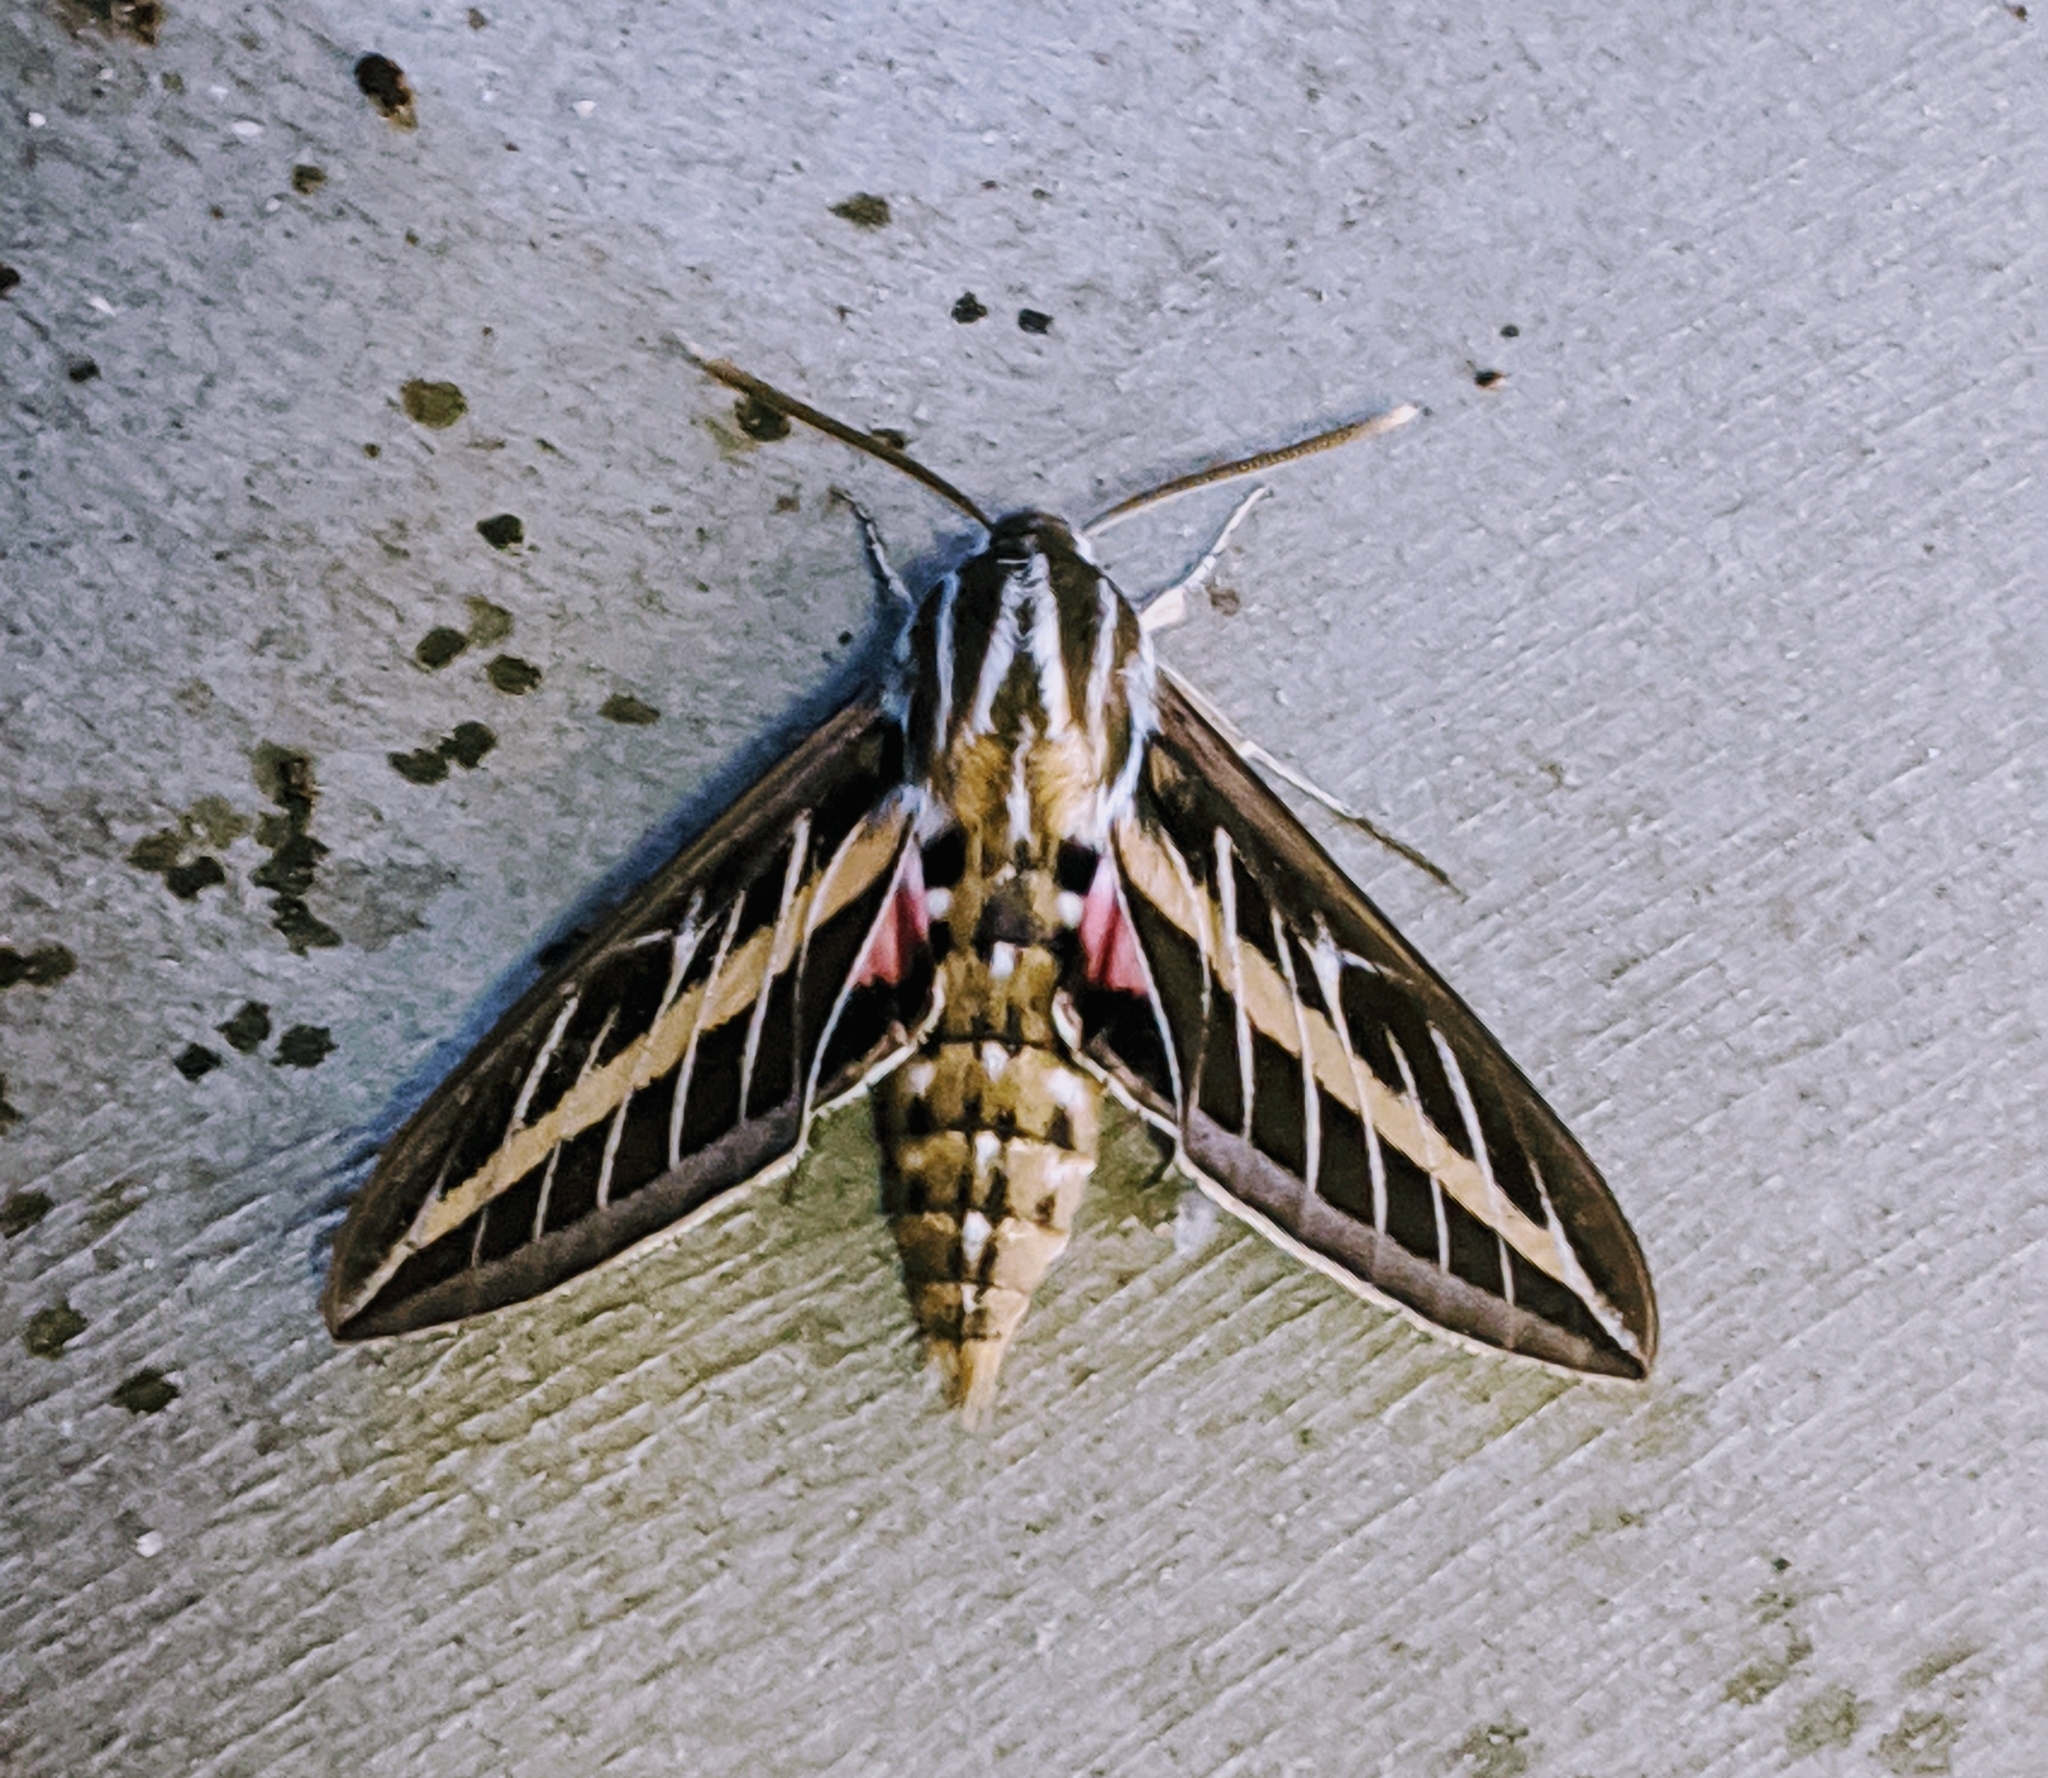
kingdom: Animalia
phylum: Arthropoda
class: Insecta
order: Lepidoptera
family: Sphingidae
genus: Hyles
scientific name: Hyles lineata
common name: White-lined sphinx
